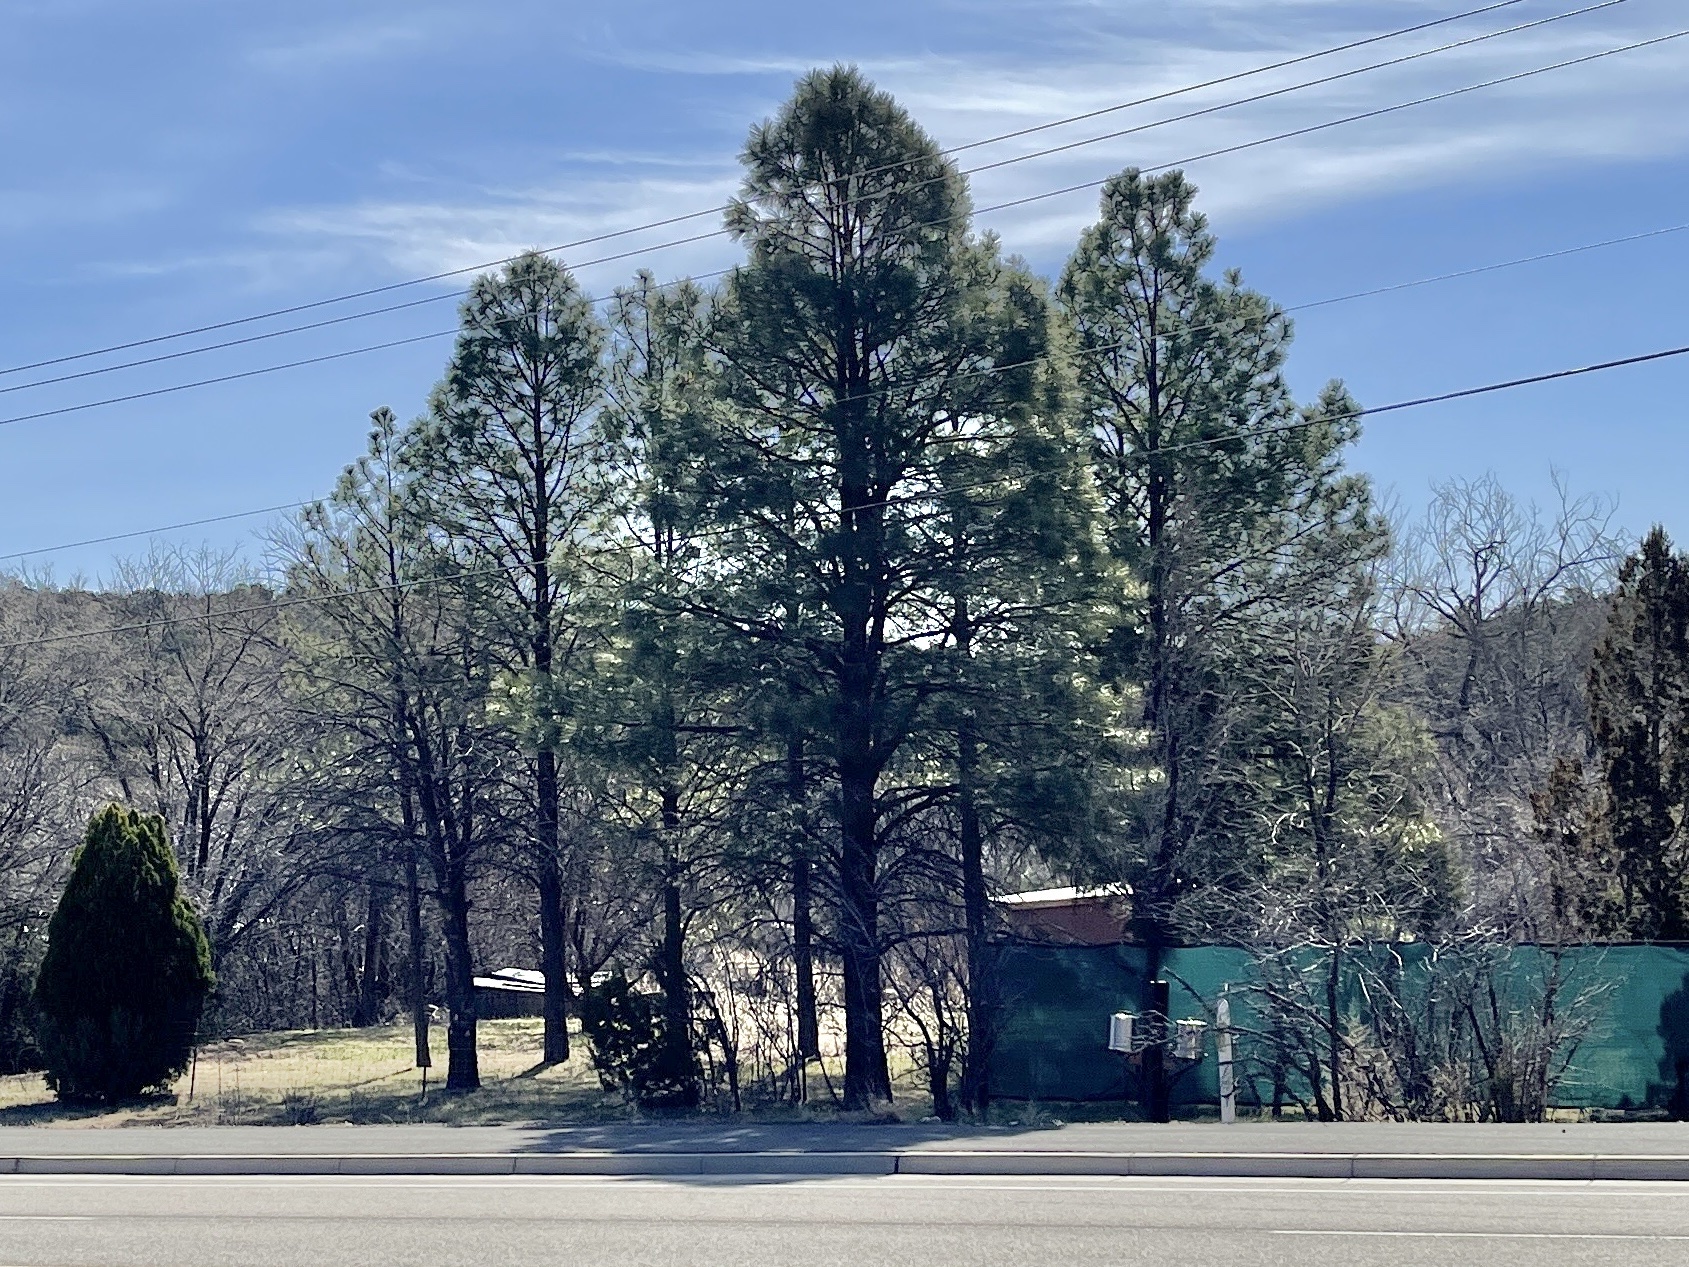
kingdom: Plantae
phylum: Tracheophyta
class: Pinopsida
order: Pinales
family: Pinaceae
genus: Pinus
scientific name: Pinus ponderosa
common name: Western yellow-pine
